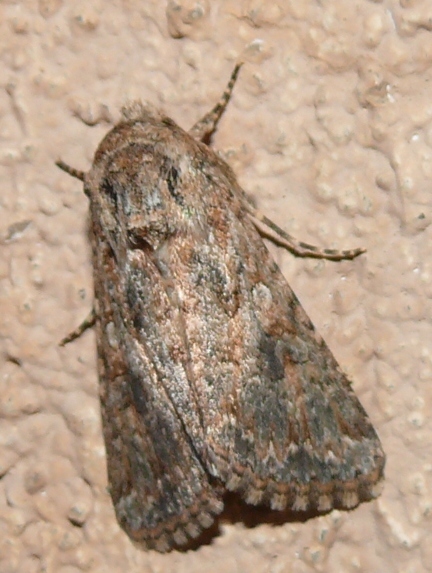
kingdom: Animalia
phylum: Arthropoda
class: Insecta
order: Lepidoptera
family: Noctuidae
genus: Cardepia
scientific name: Cardepia definiens
